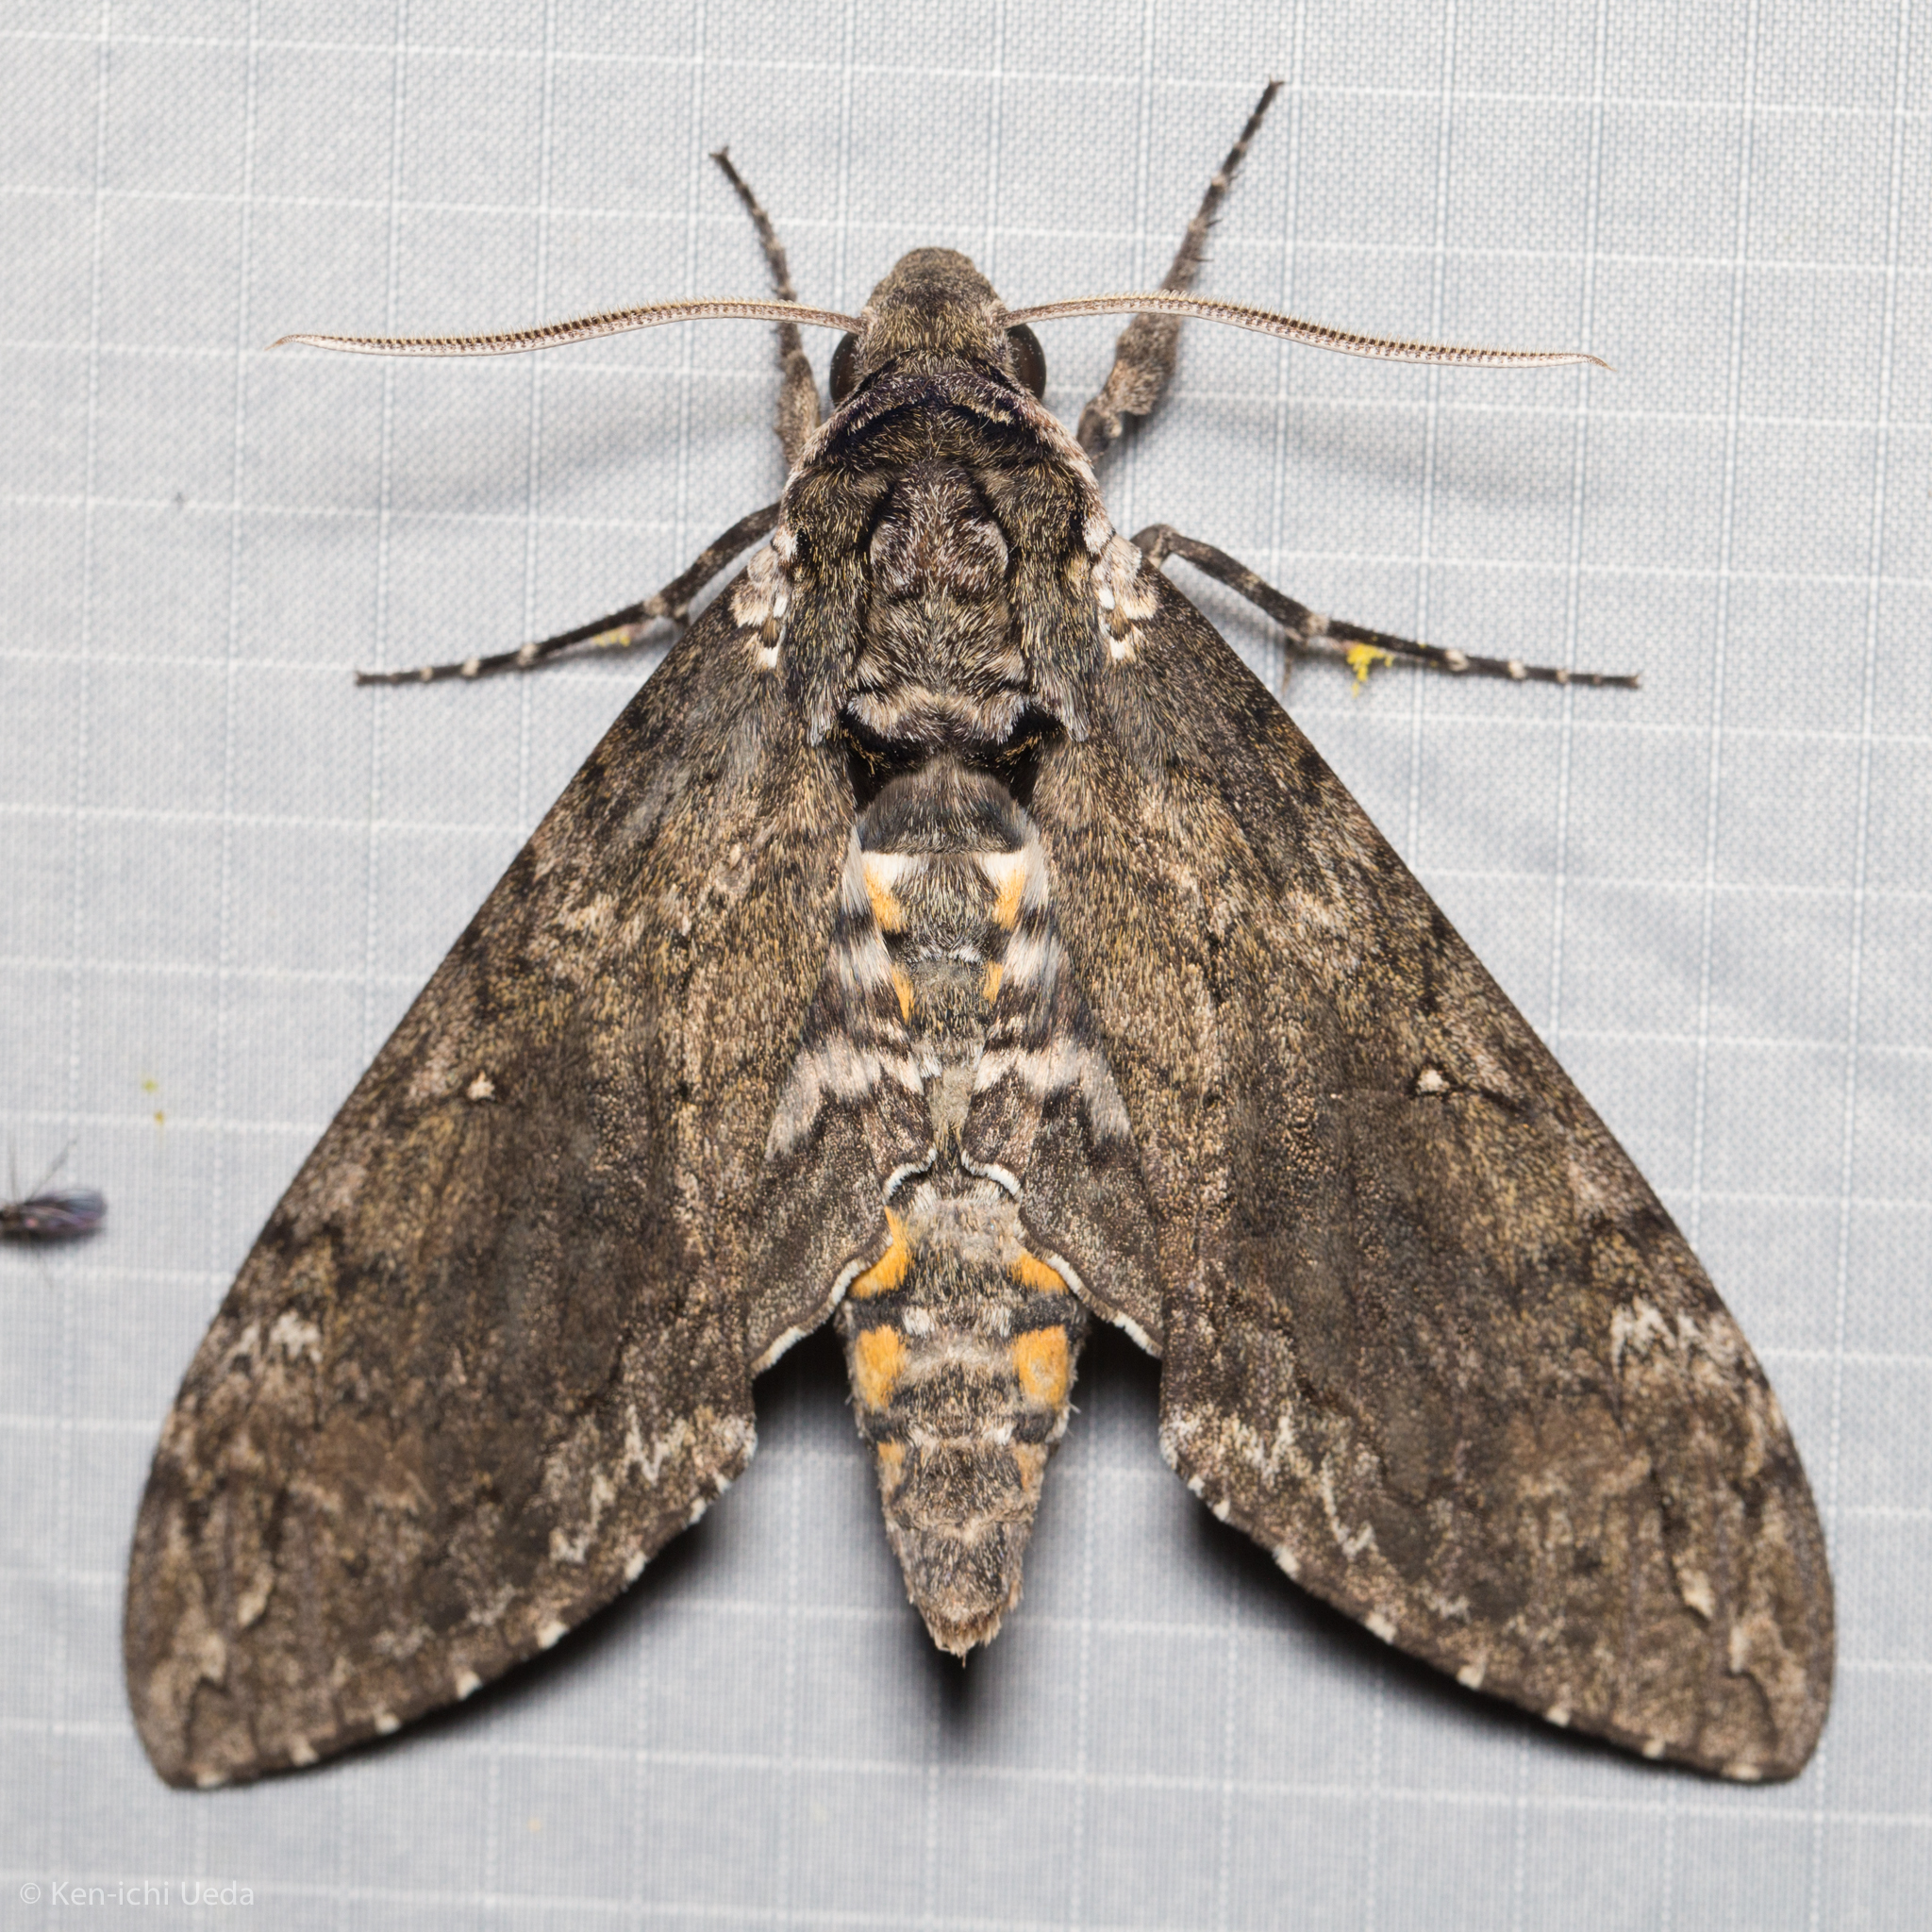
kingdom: Animalia
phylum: Arthropoda
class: Insecta
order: Lepidoptera
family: Sphingidae
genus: Manduca
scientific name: Manduca sexta
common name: Carolina sphinx
